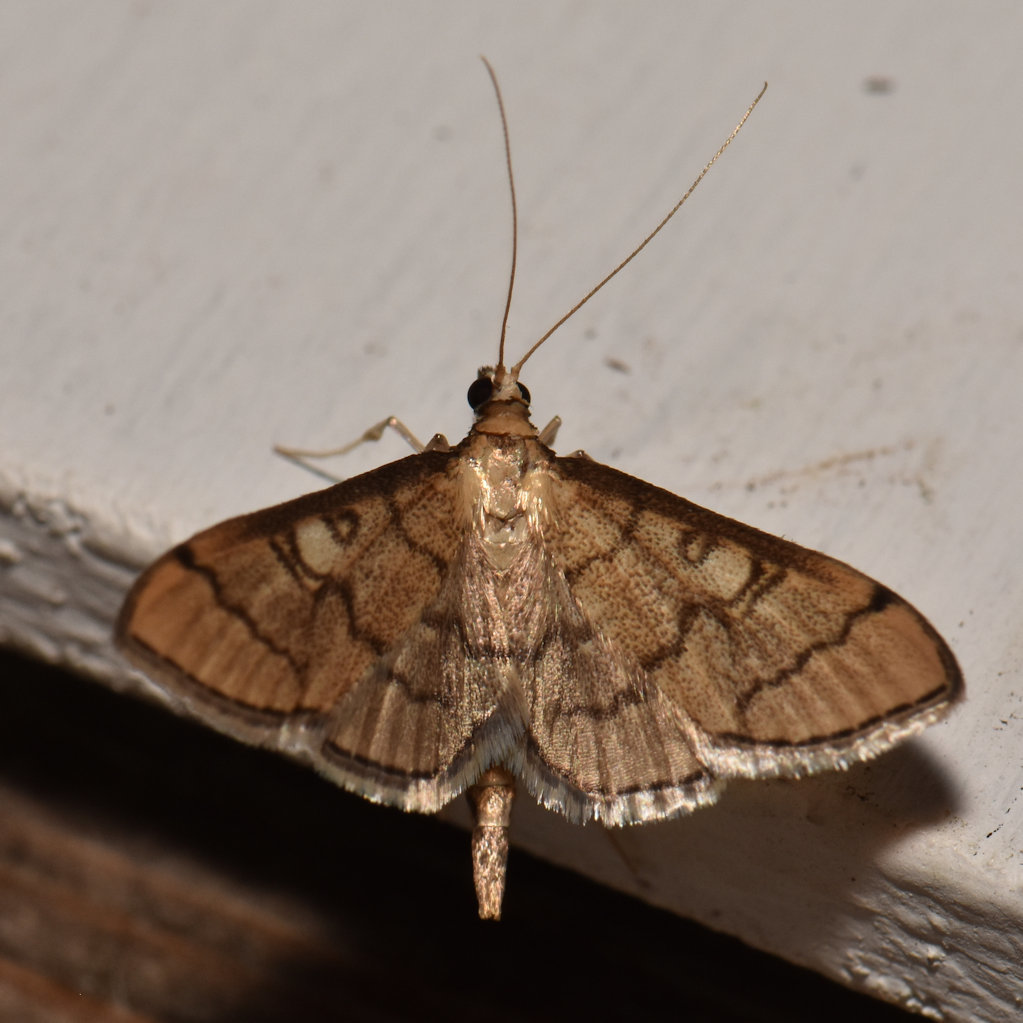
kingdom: Animalia
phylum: Arthropoda
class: Insecta
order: Lepidoptera
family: Crambidae
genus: Lamprosema
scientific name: Lamprosema Blepharomastix ranalis
